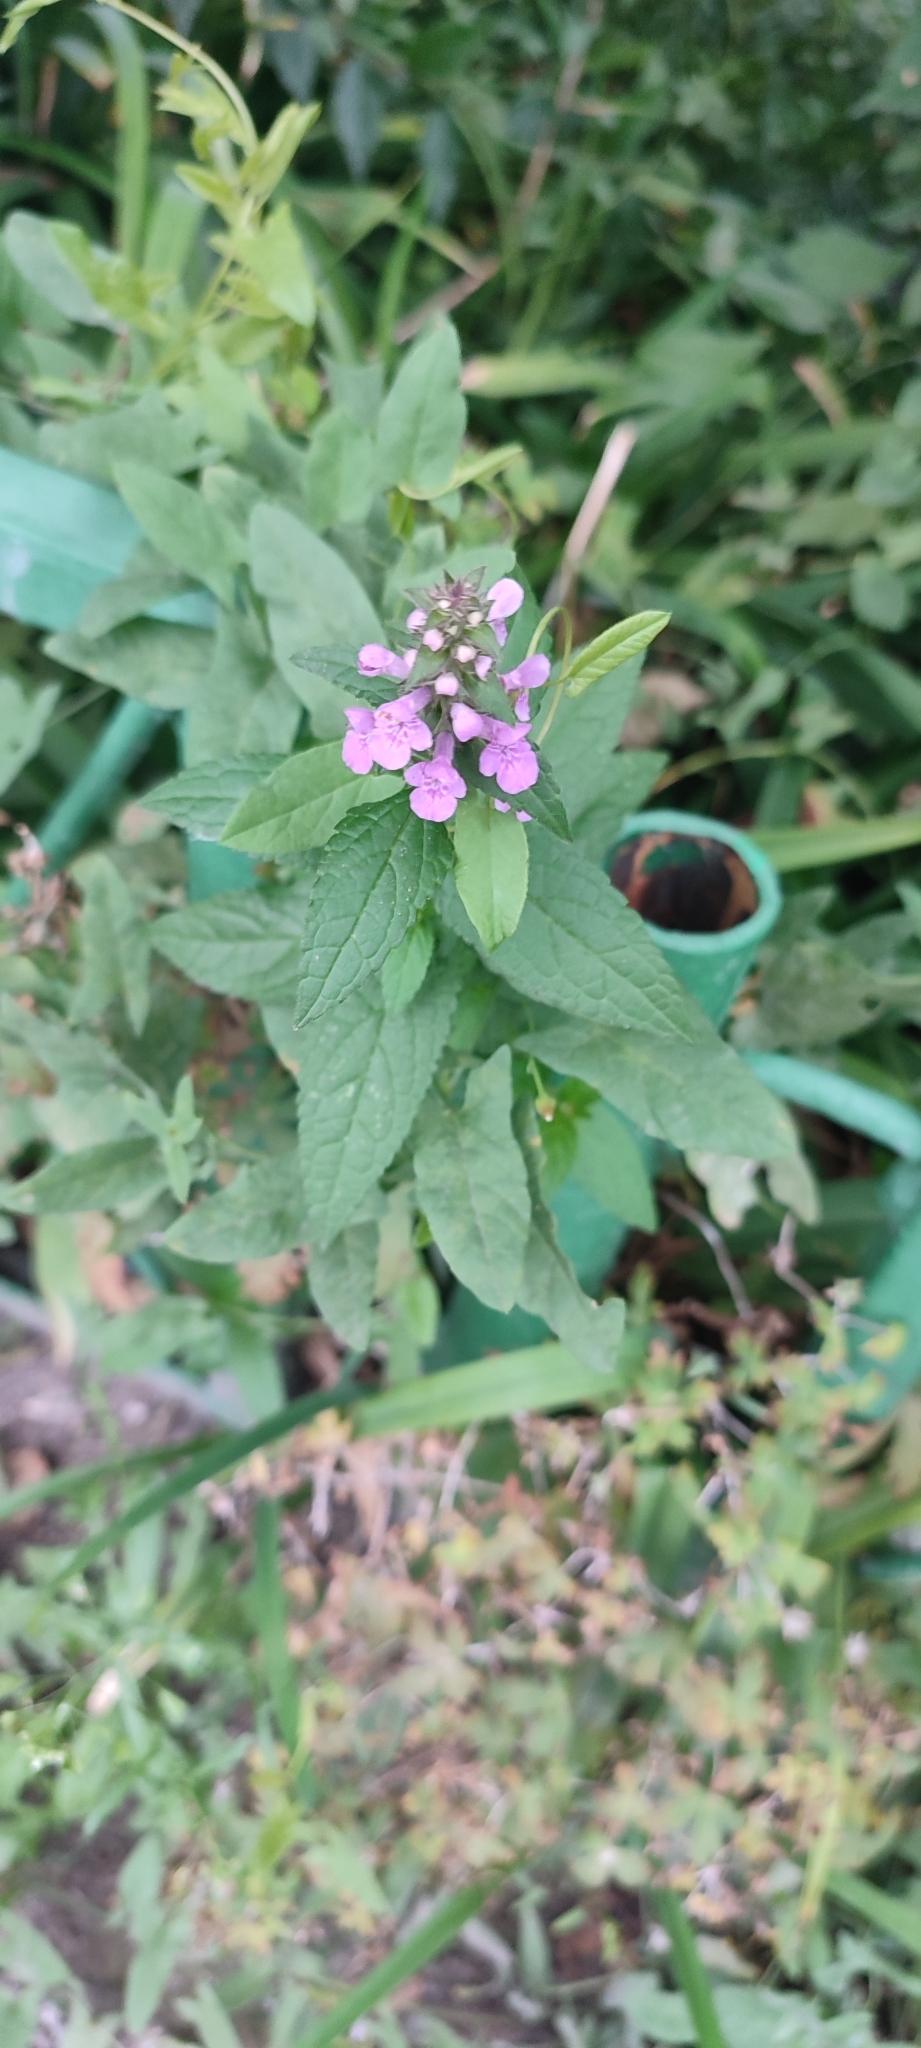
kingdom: Plantae
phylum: Tracheophyta
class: Magnoliopsida
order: Lamiales
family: Lamiaceae
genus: Stachys
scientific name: Stachys palustris
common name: Marsh woundwort
